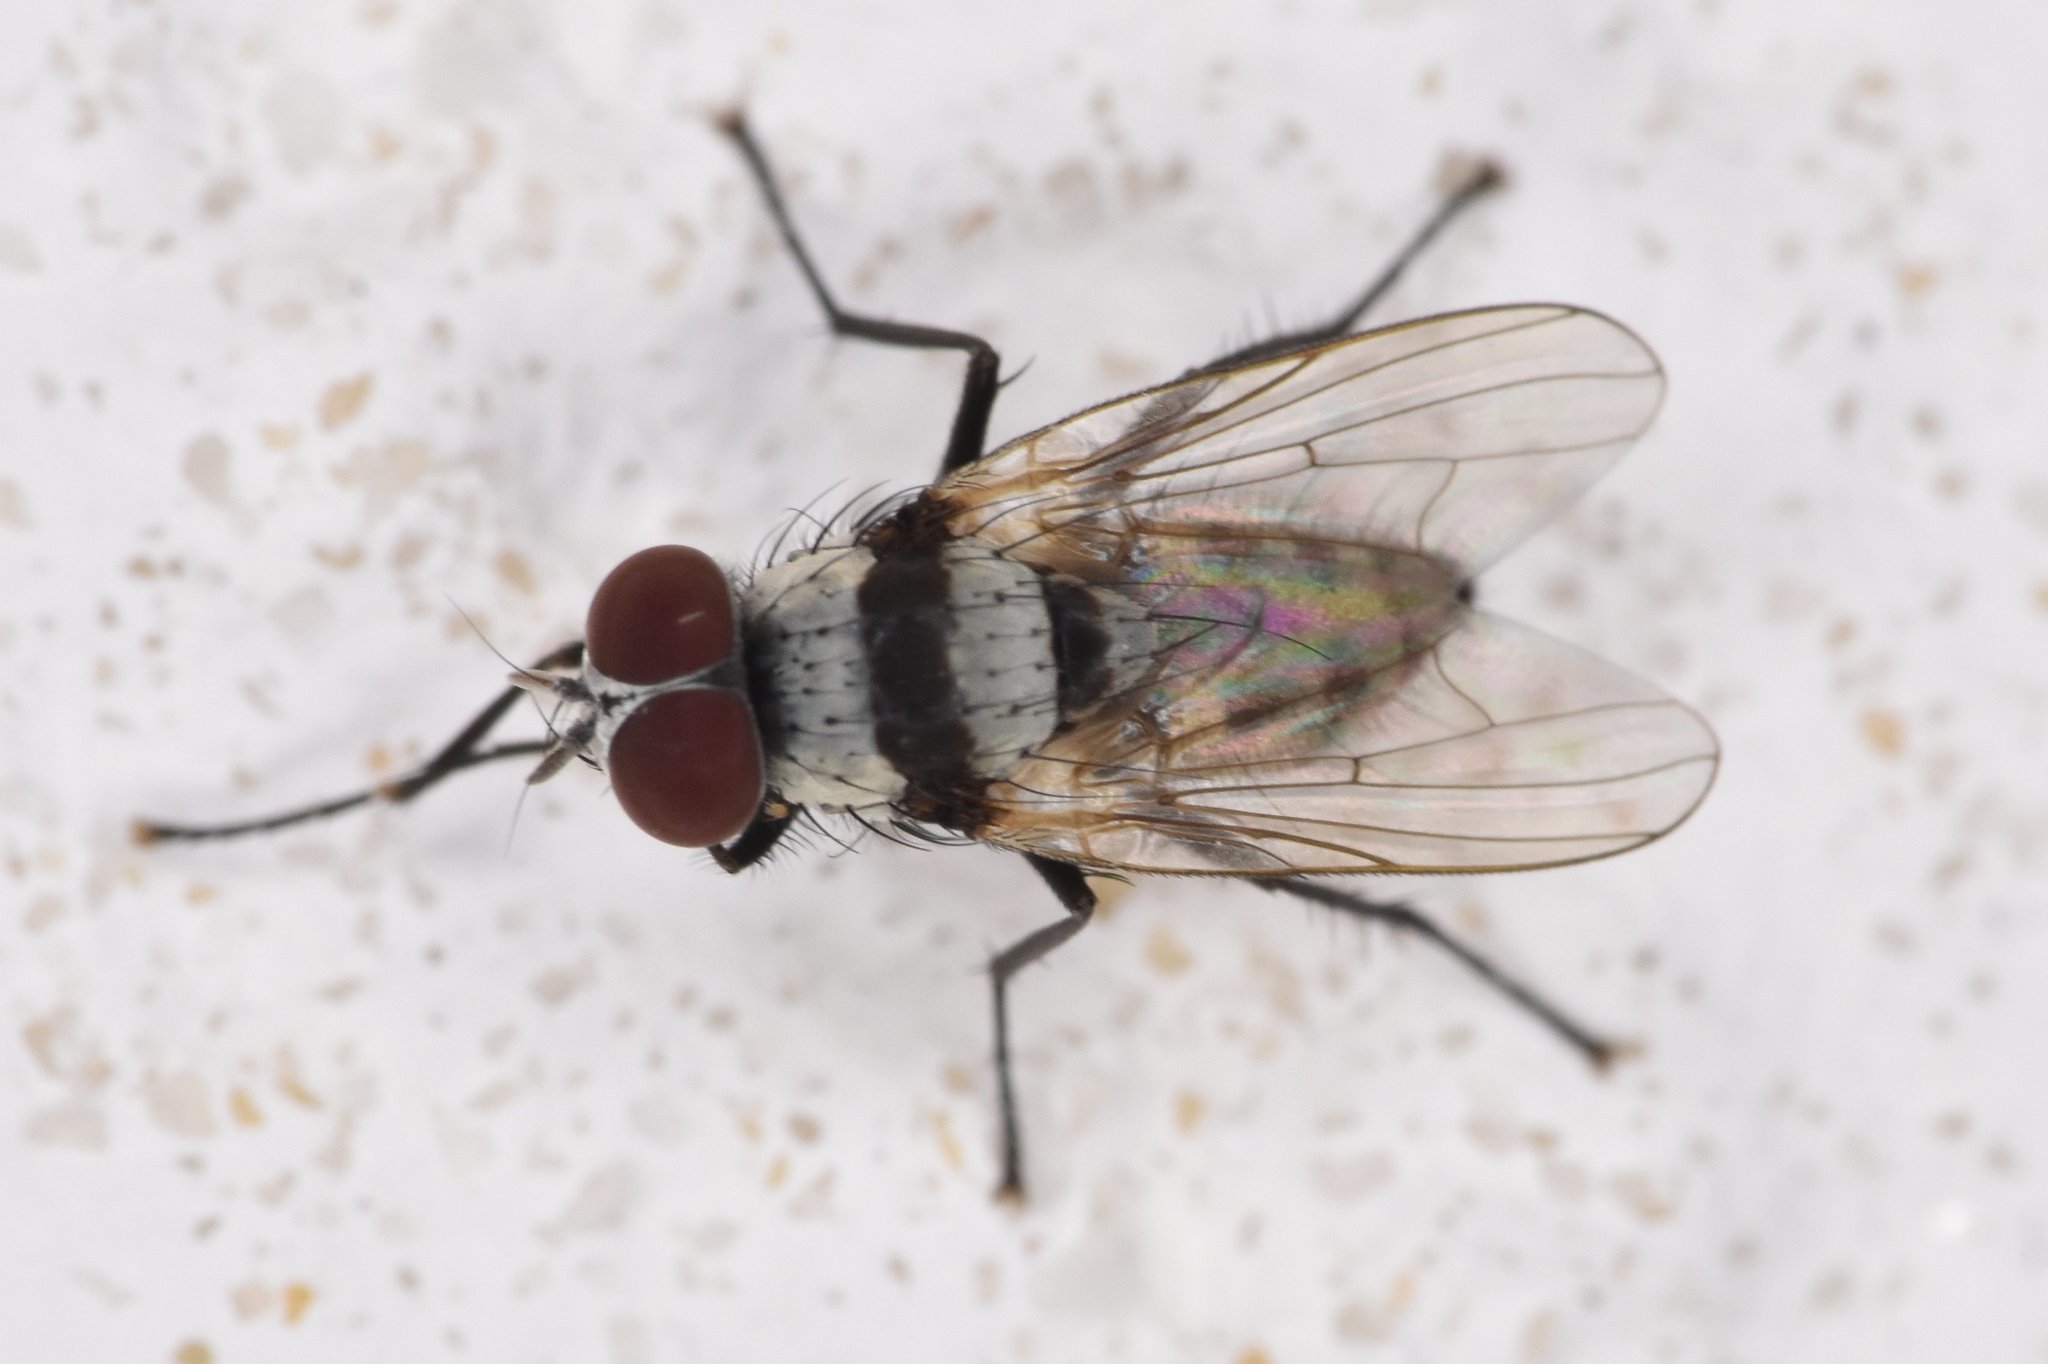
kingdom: Animalia
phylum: Arthropoda
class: Insecta
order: Diptera
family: Anthomyiidae
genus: Anthomyia
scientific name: Anthomyia illocata
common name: Fly
